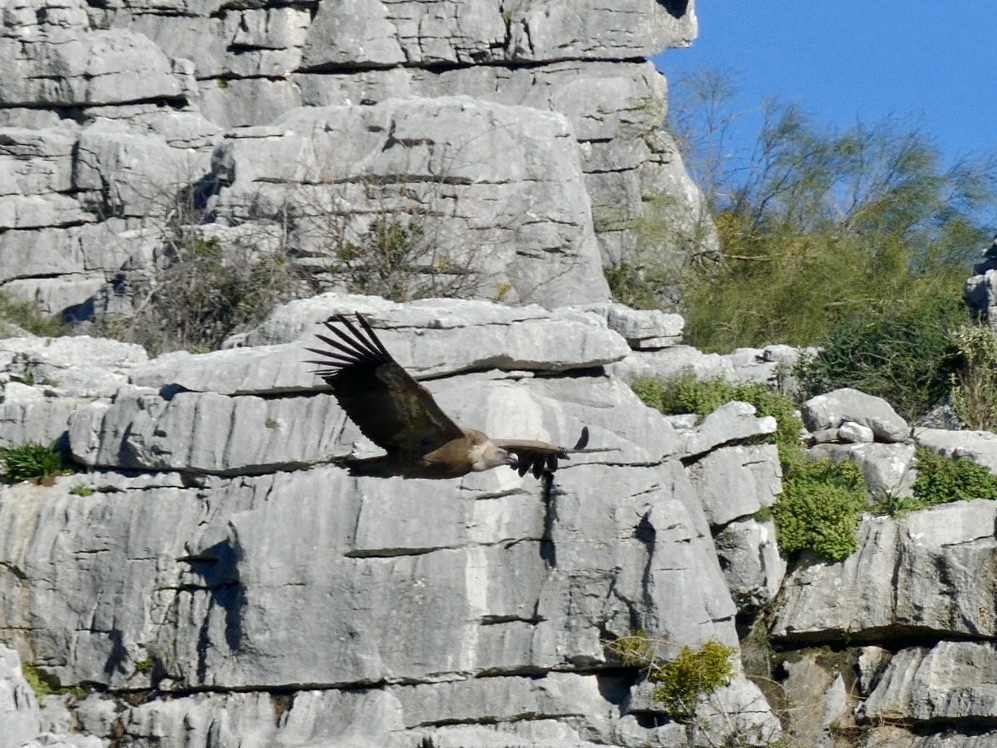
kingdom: Animalia
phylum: Chordata
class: Aves
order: Accipitriformes
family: Accipitridae
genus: Gyps
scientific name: Gyps fulvus
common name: Griffon vulture
